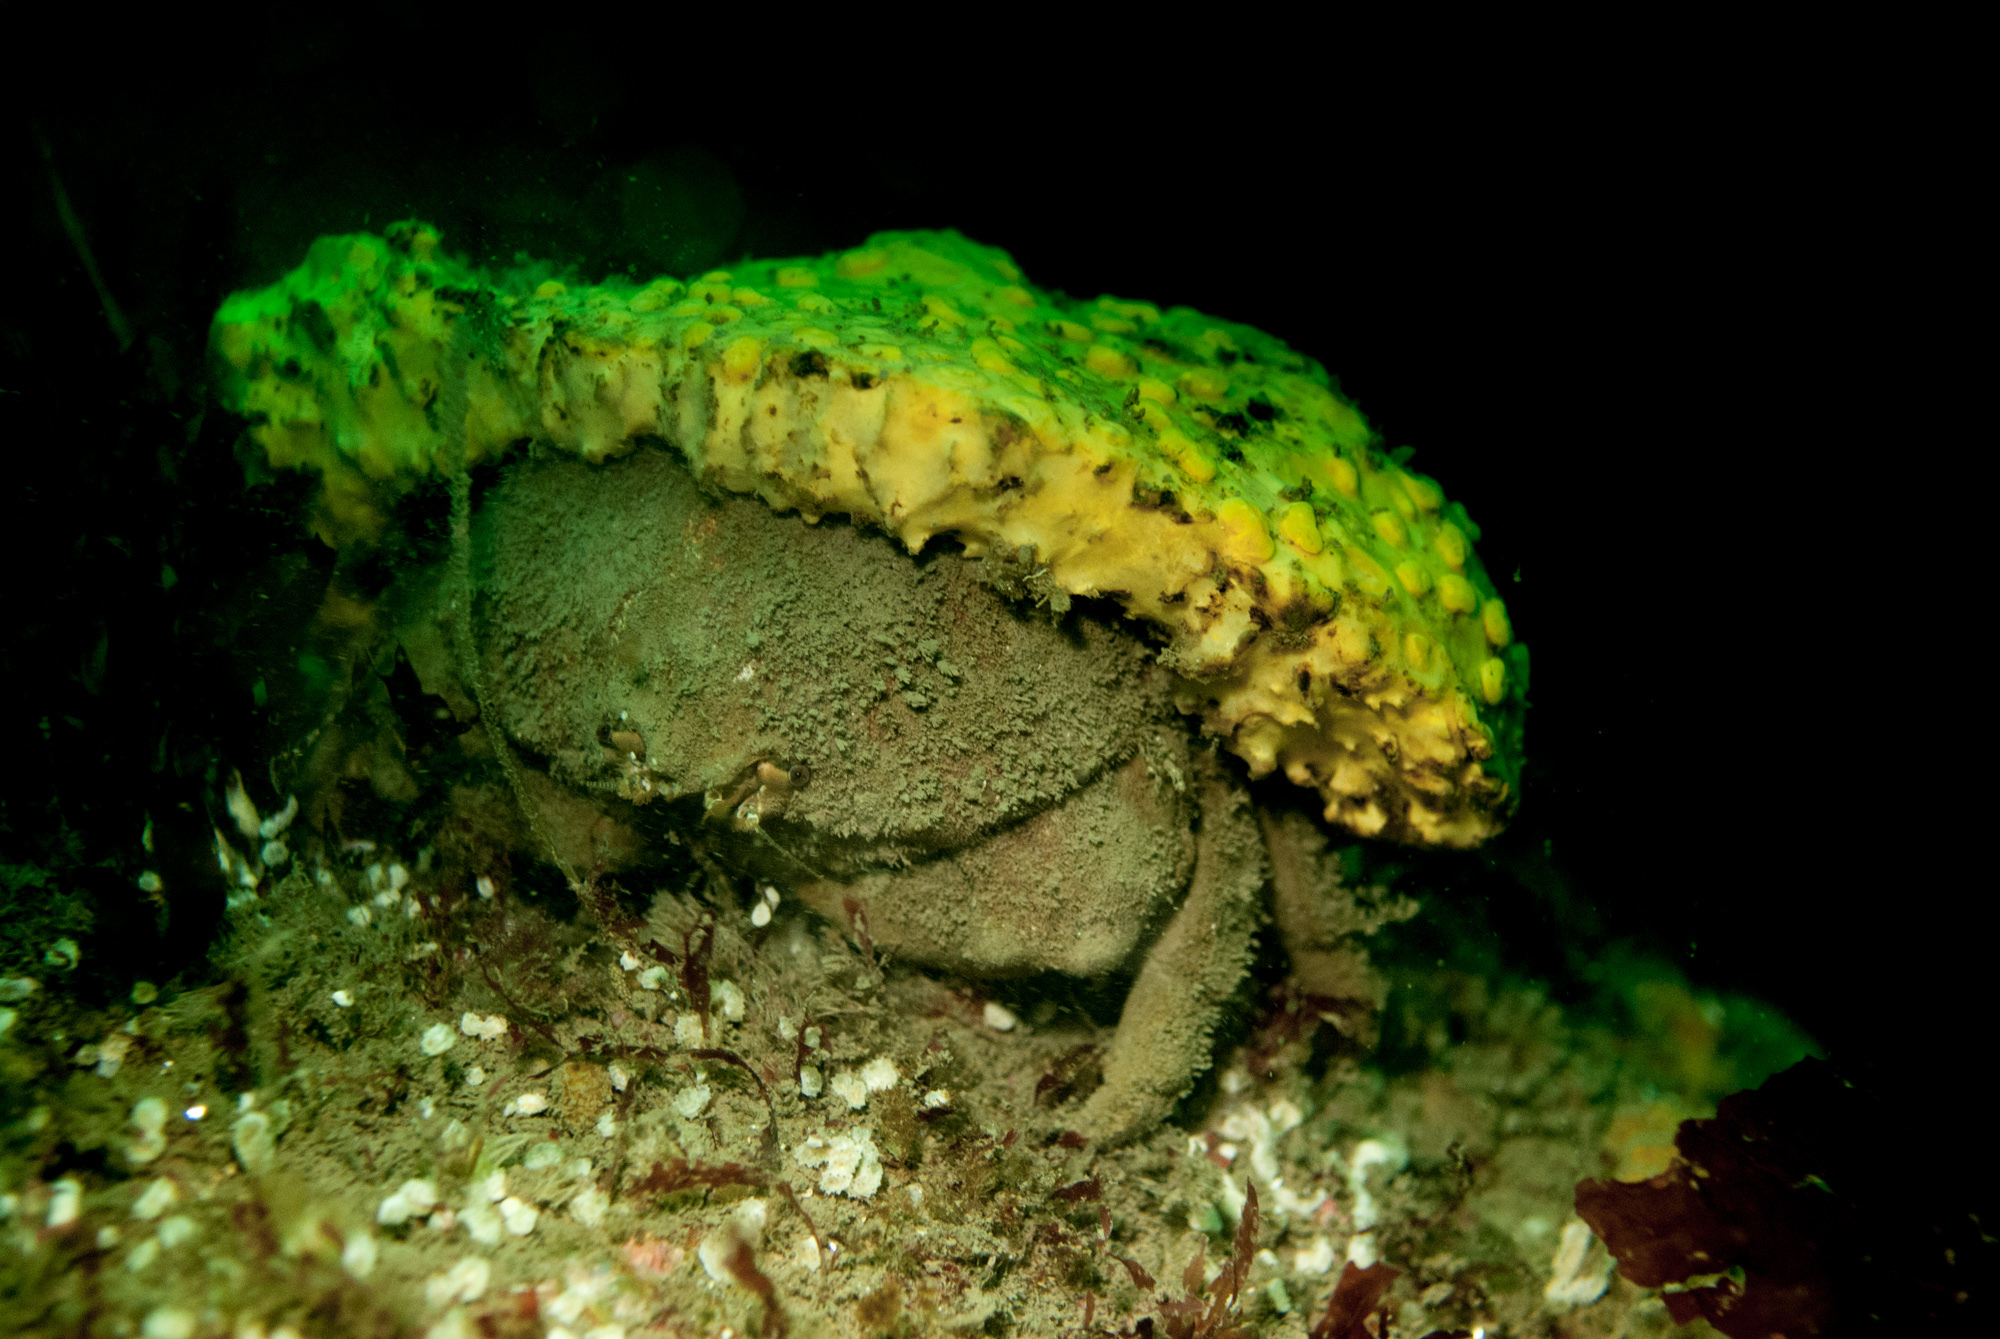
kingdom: Animalia
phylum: Arthropoda
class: Malacostraca
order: Decapoda
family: Dromiidae
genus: Dromia
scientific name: Dromia personata
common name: Sleepy crab
